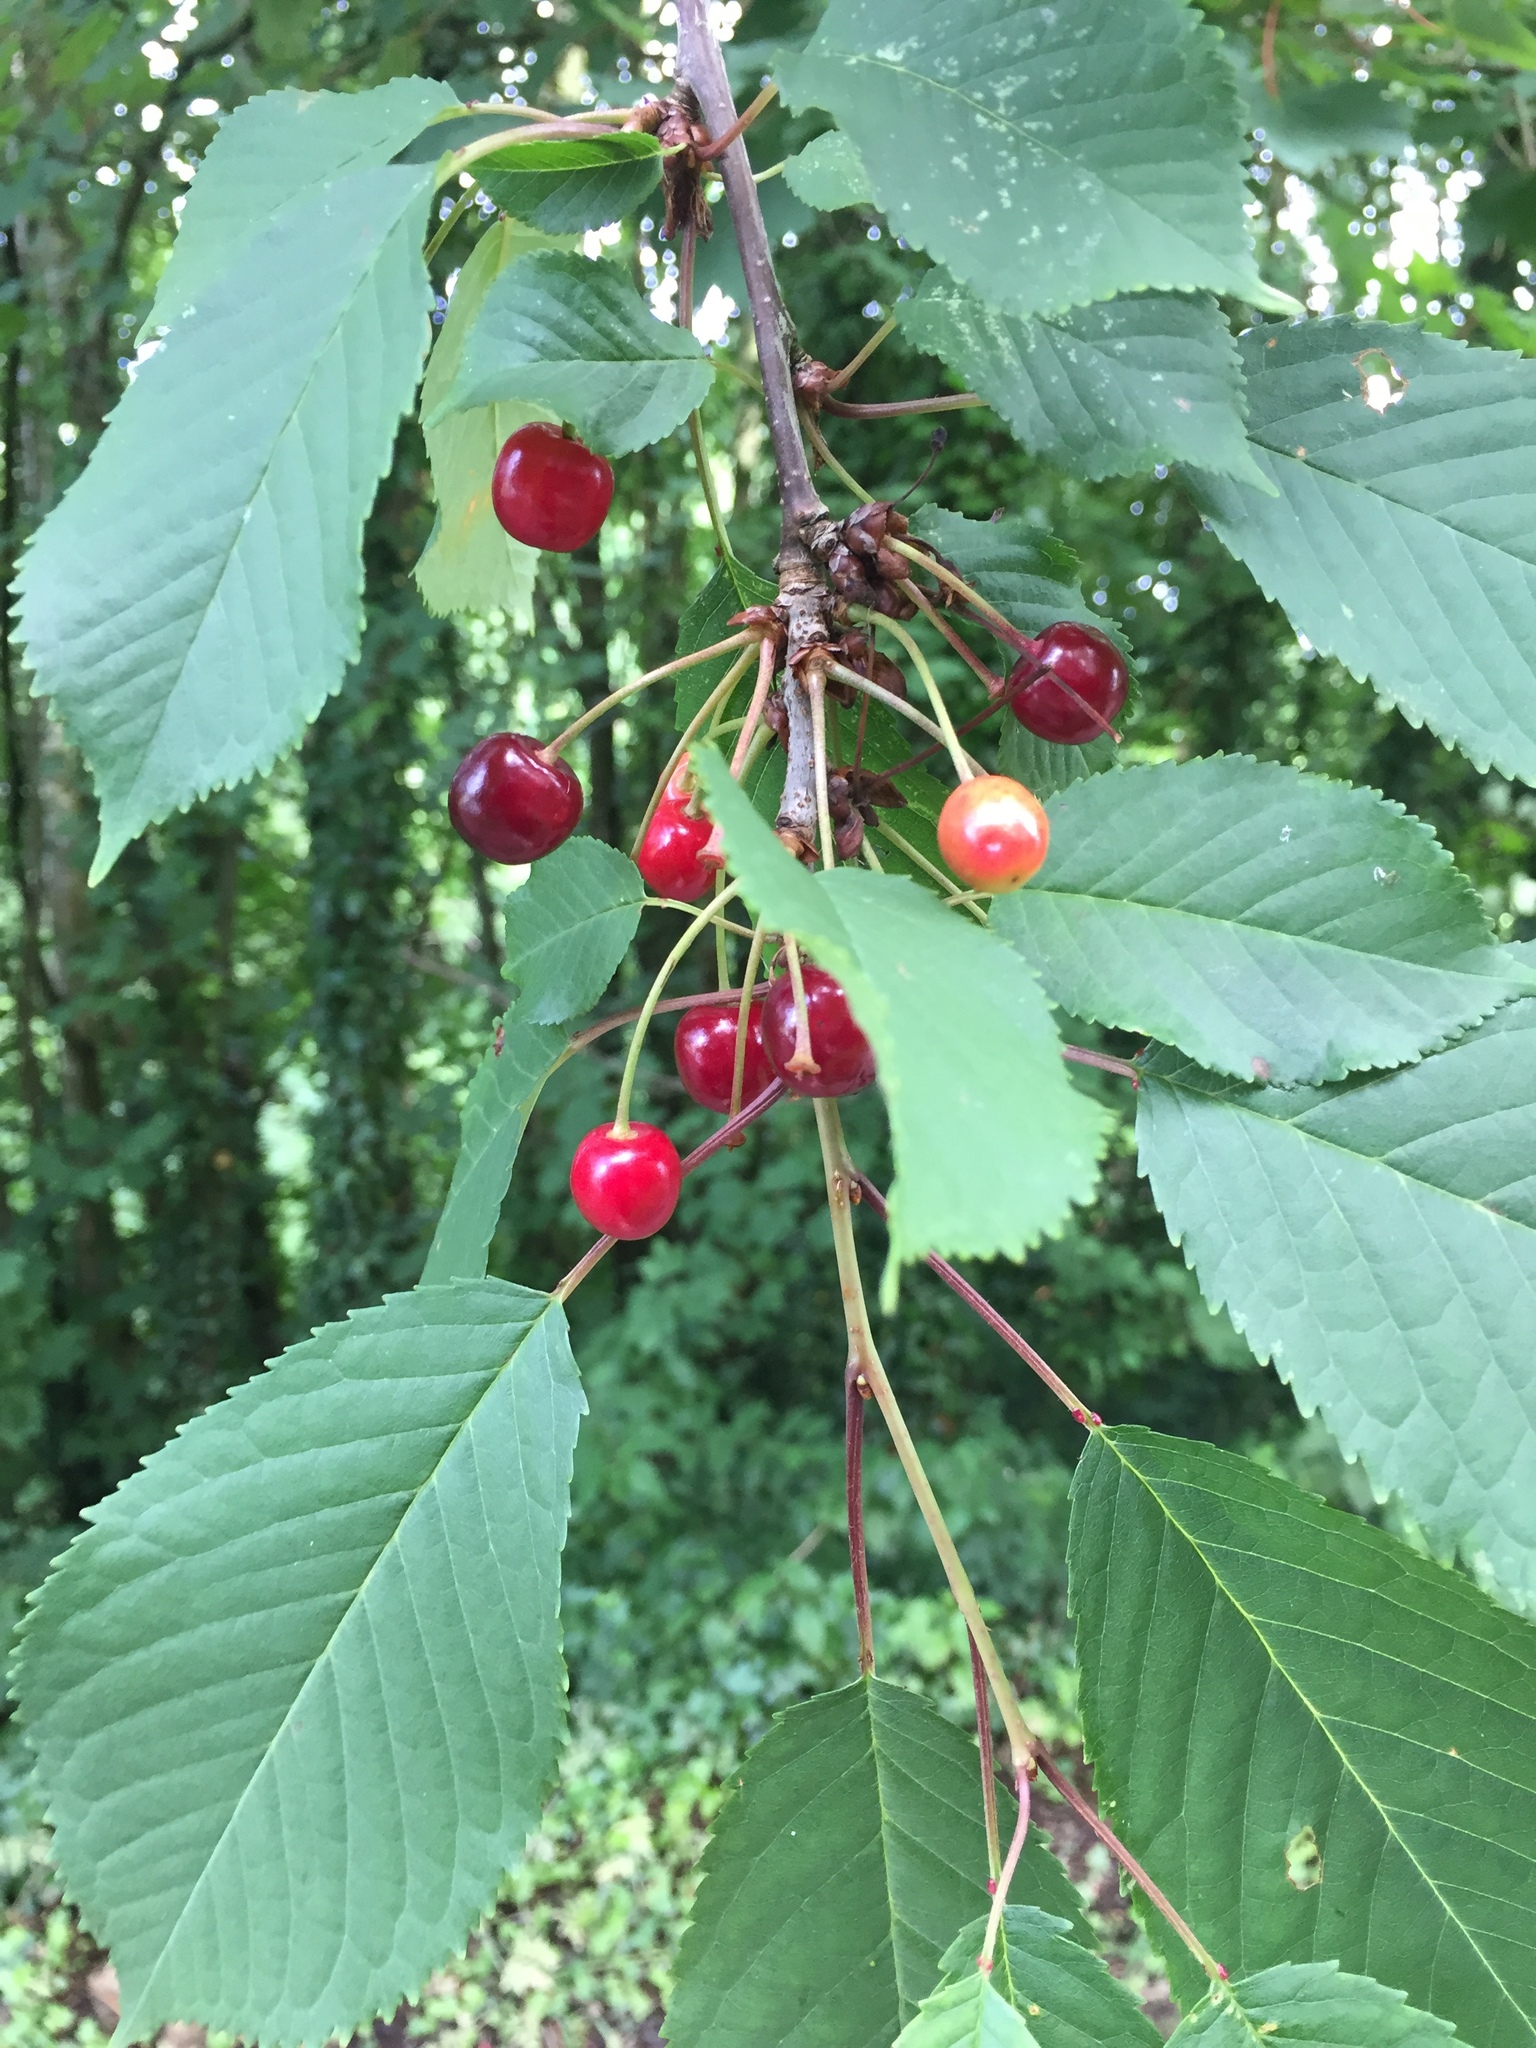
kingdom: Plantae
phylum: Tracheophyta
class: Magnoliopsida
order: Rosales
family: Rosaceae
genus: Prunus
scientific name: Prunus avium
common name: Sweet cherry
